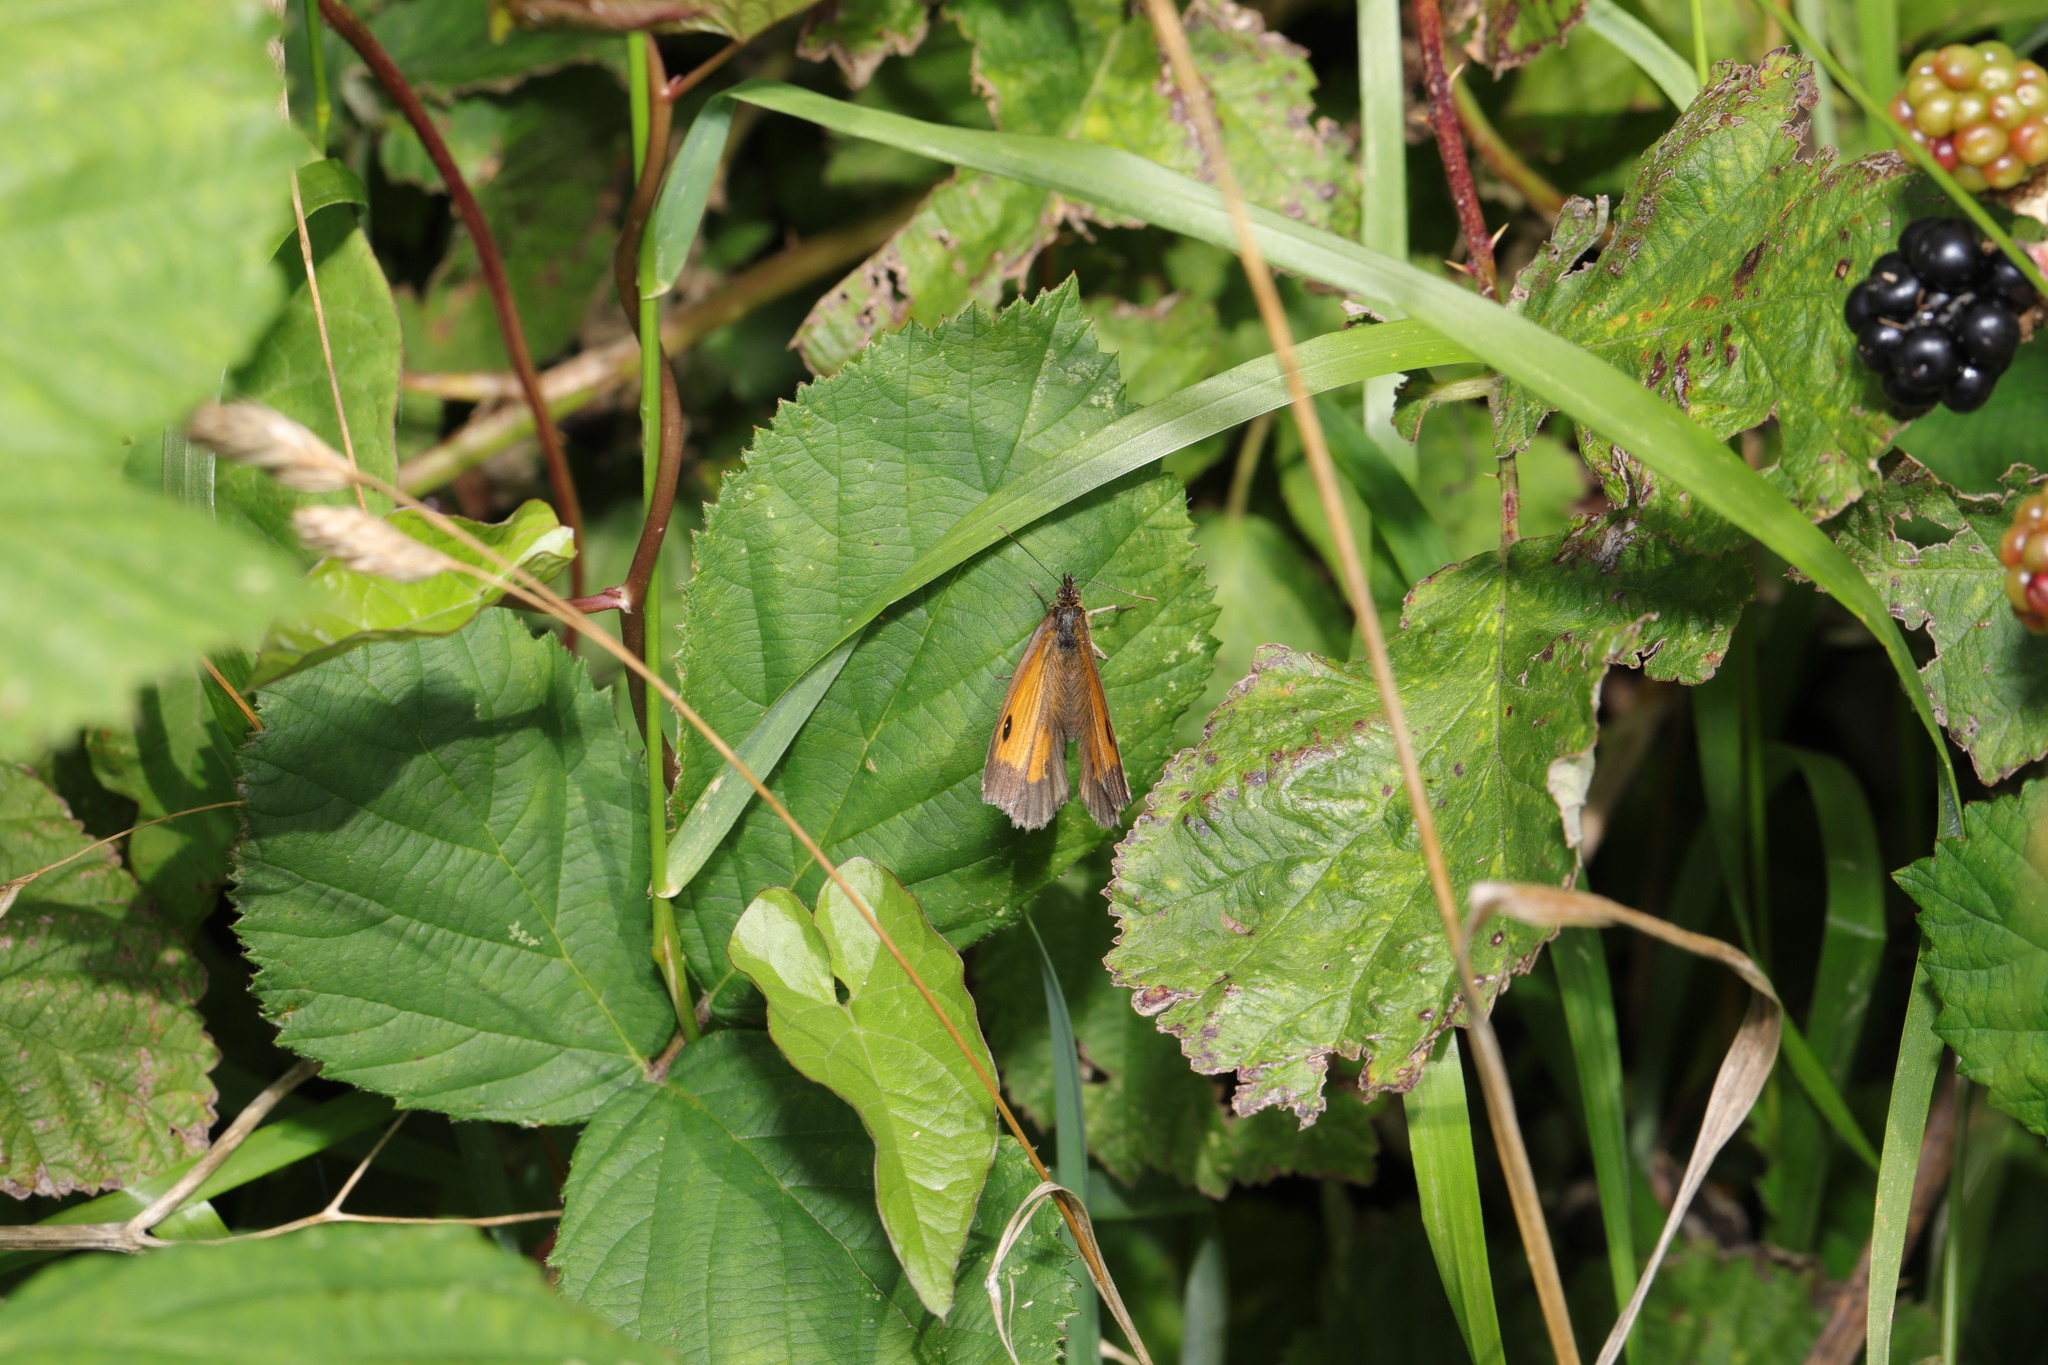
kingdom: Animalia
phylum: Arthropoda
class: Insecta
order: Lepidoptera
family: Nymphalidae
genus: Pyronia
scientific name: Pyronia tithonus
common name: Gatekeeper
